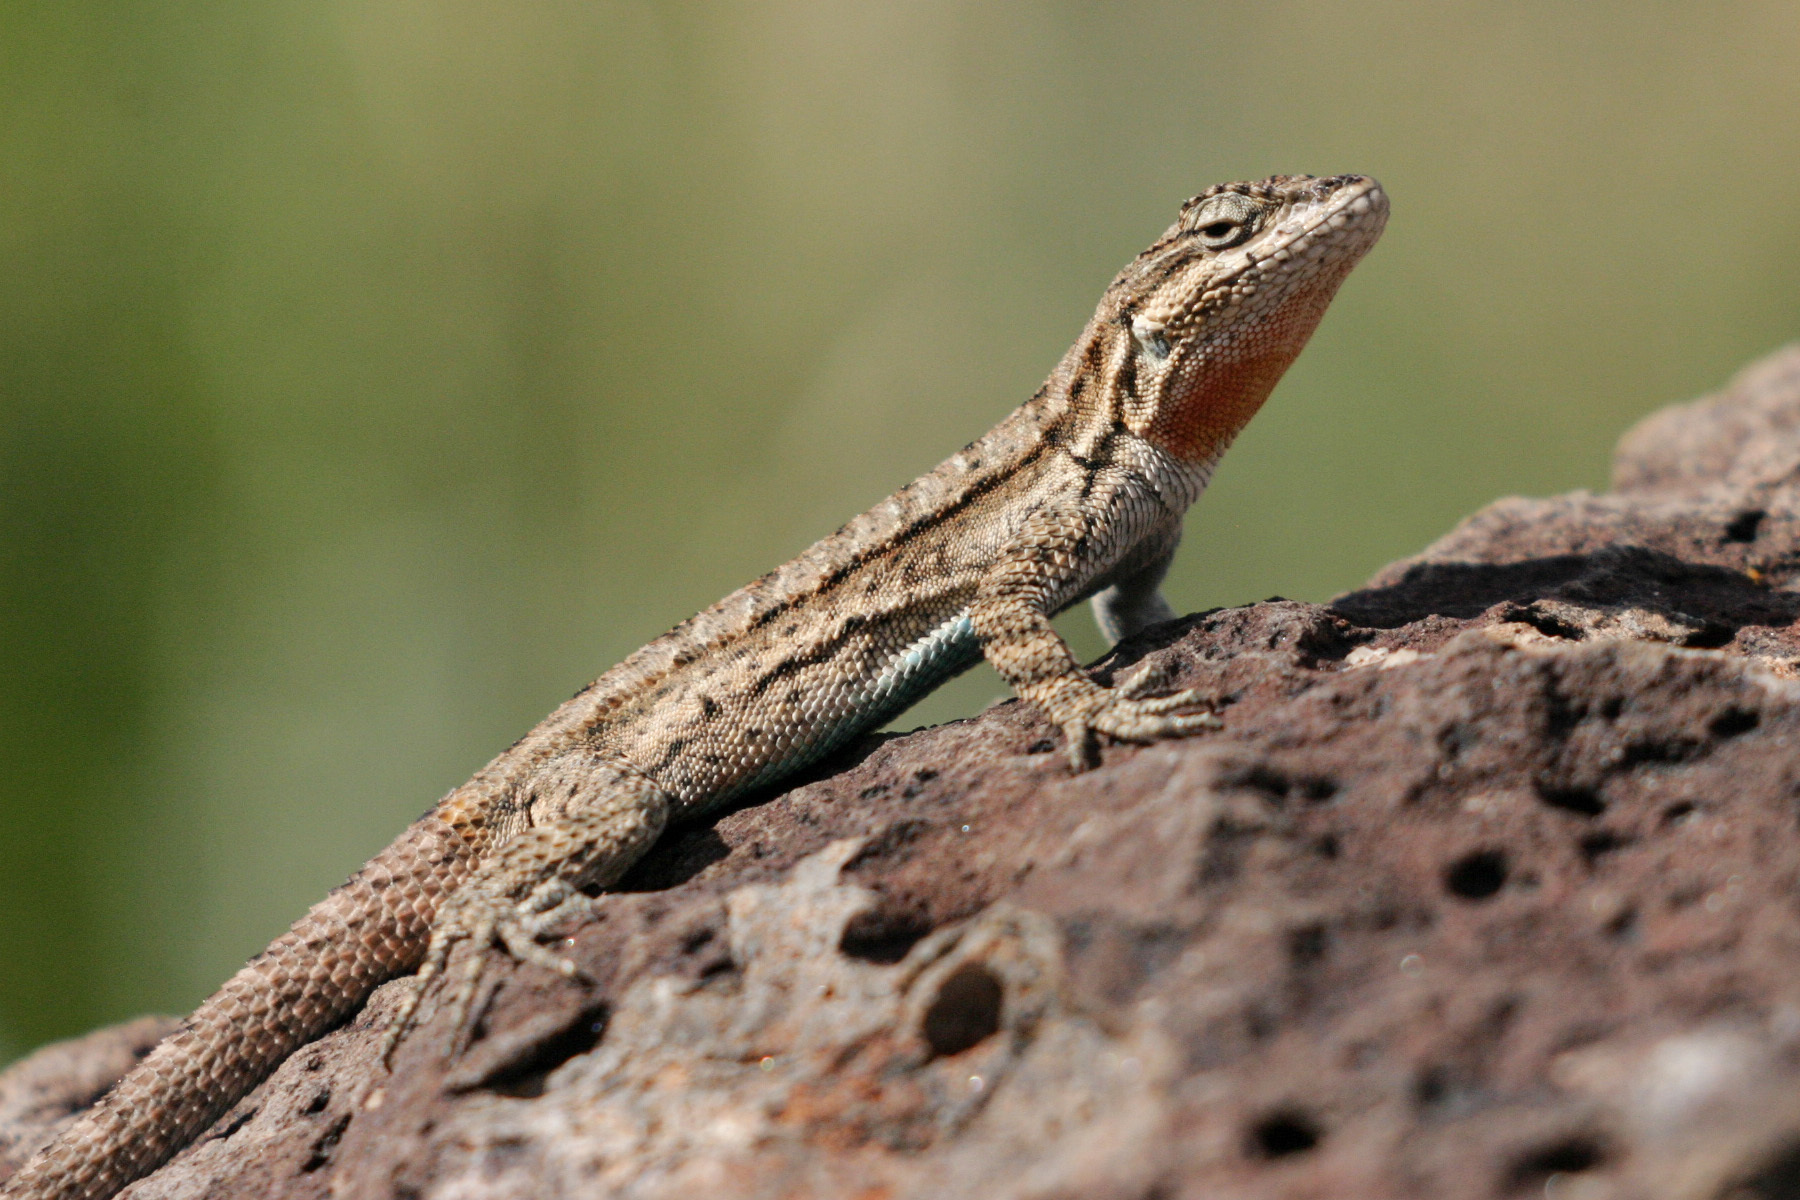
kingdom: Animalia
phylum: Chordata
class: Squamata
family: Phrynosomatidae
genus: Urosaurus
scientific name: Urosaurus ornatus
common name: Ornate tree lizard
